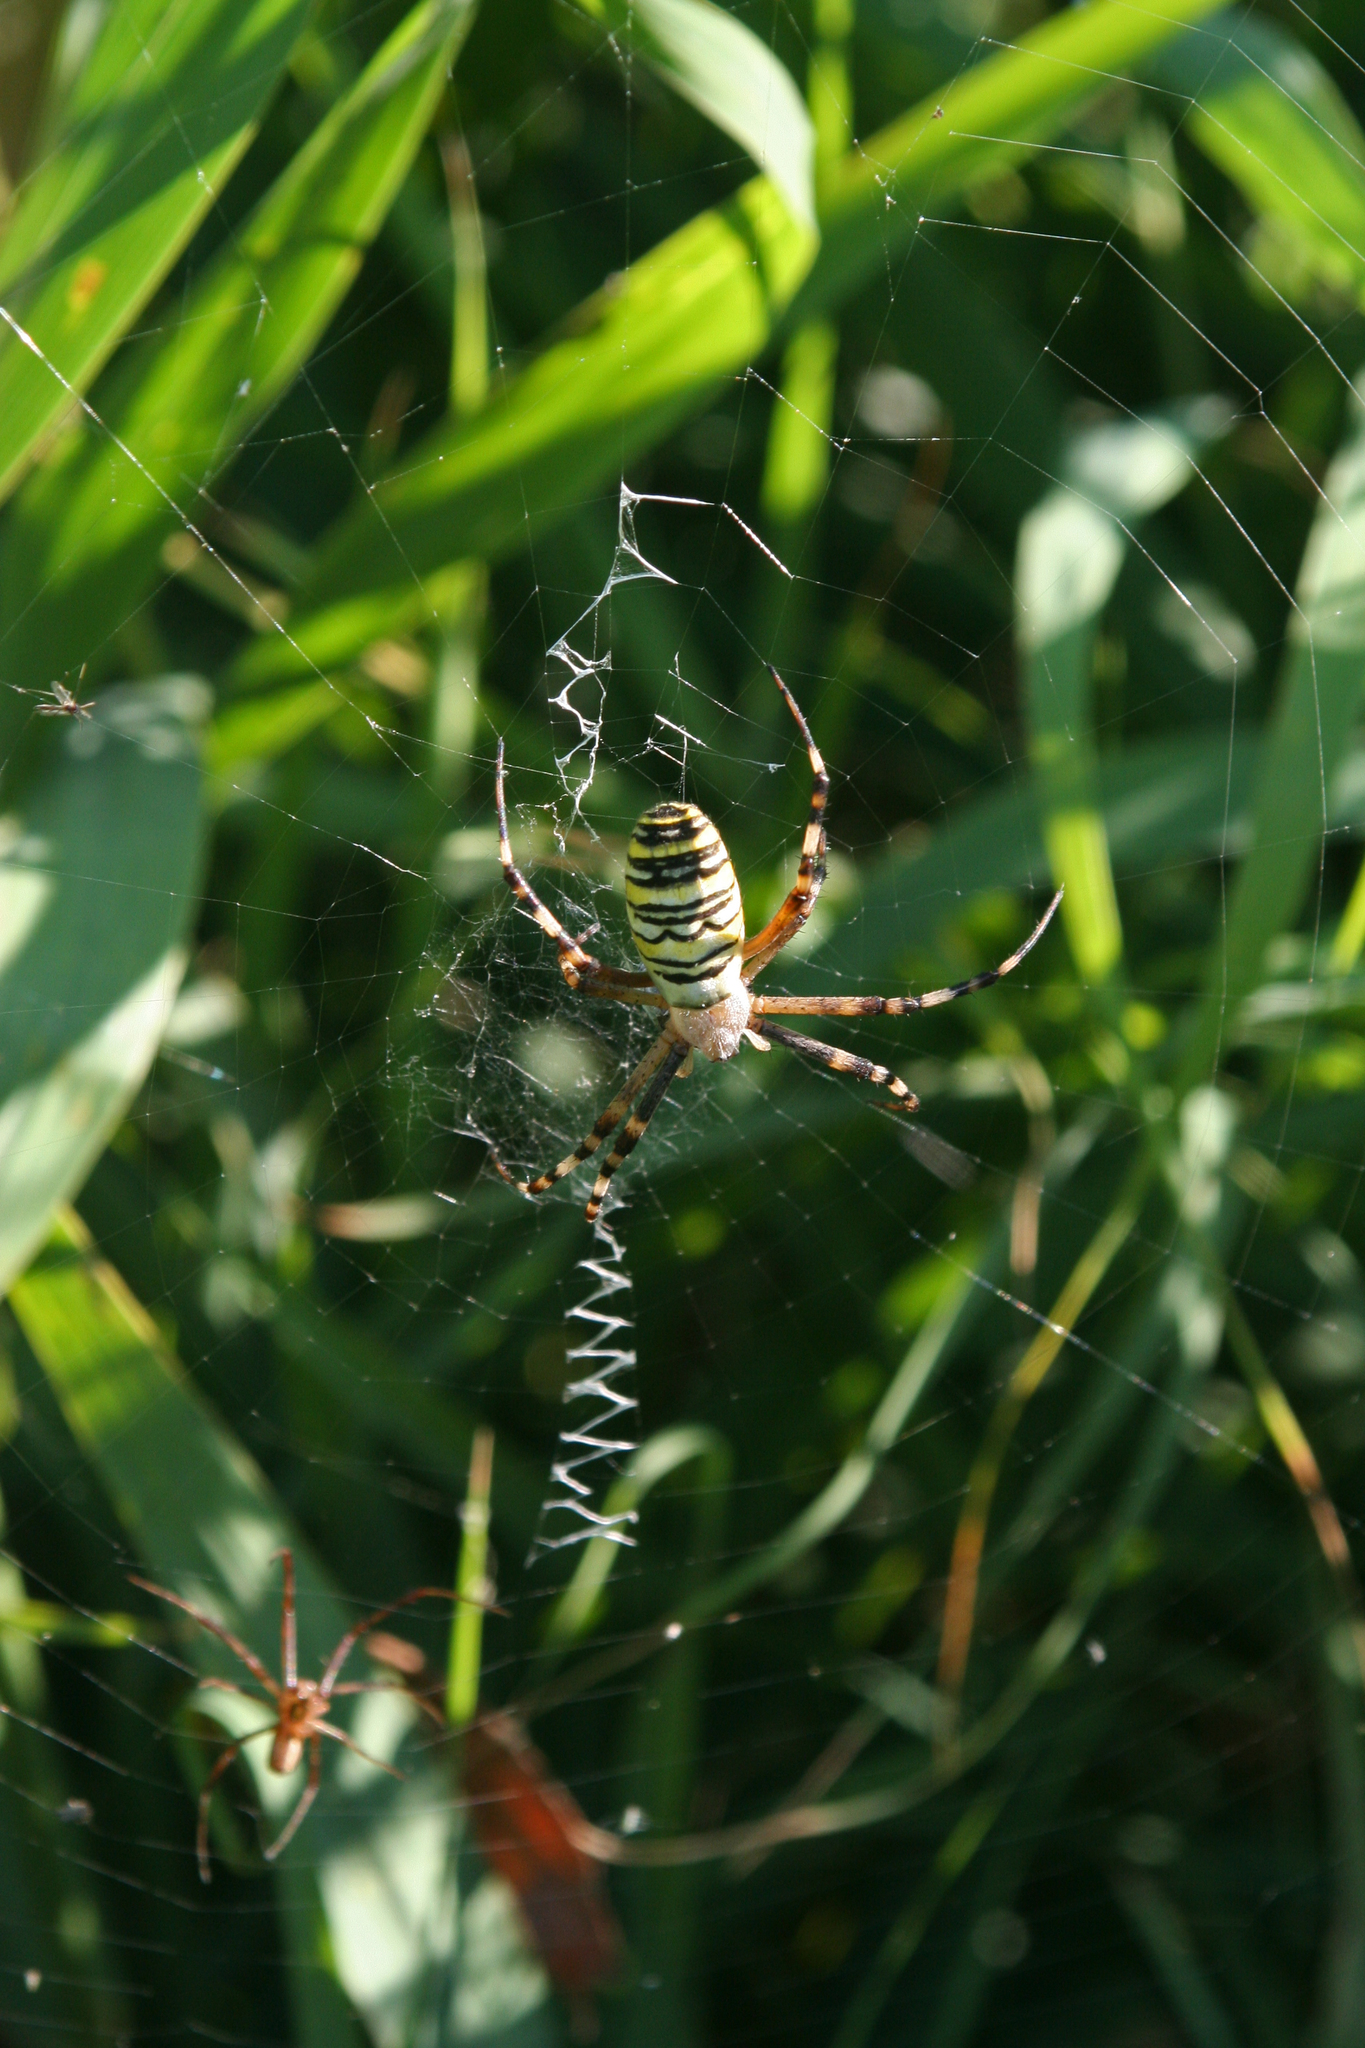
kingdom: Animalia
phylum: Arthropoda
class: Arachnida
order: Araneae
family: Araneidae
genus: Argiope
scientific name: Argiope bruennichi
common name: Wasp spider
